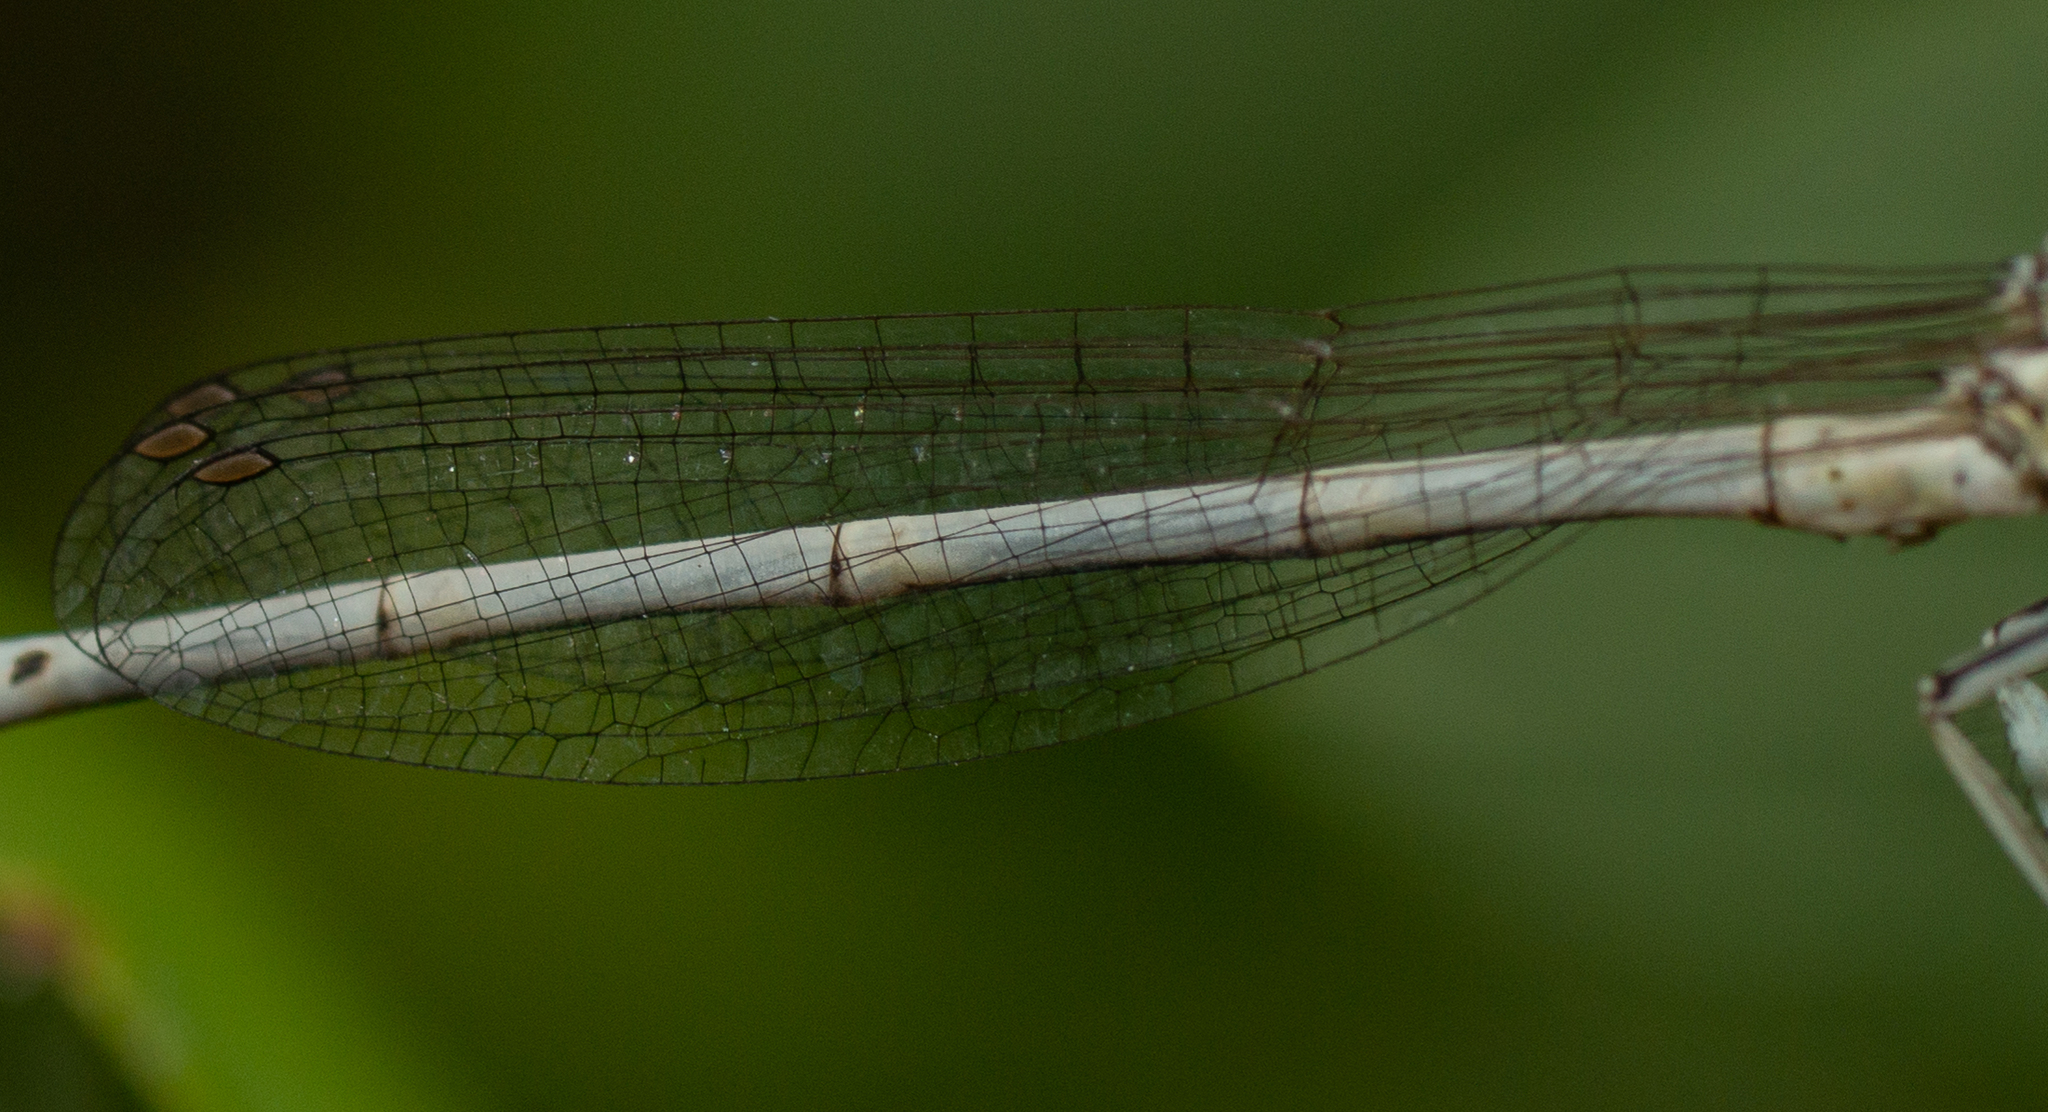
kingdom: Animalia
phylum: Arthropoda
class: Insecta
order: Odonata
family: Platycnemididae
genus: Platycnemis
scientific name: Platycnemis latipes
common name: White featherleg
